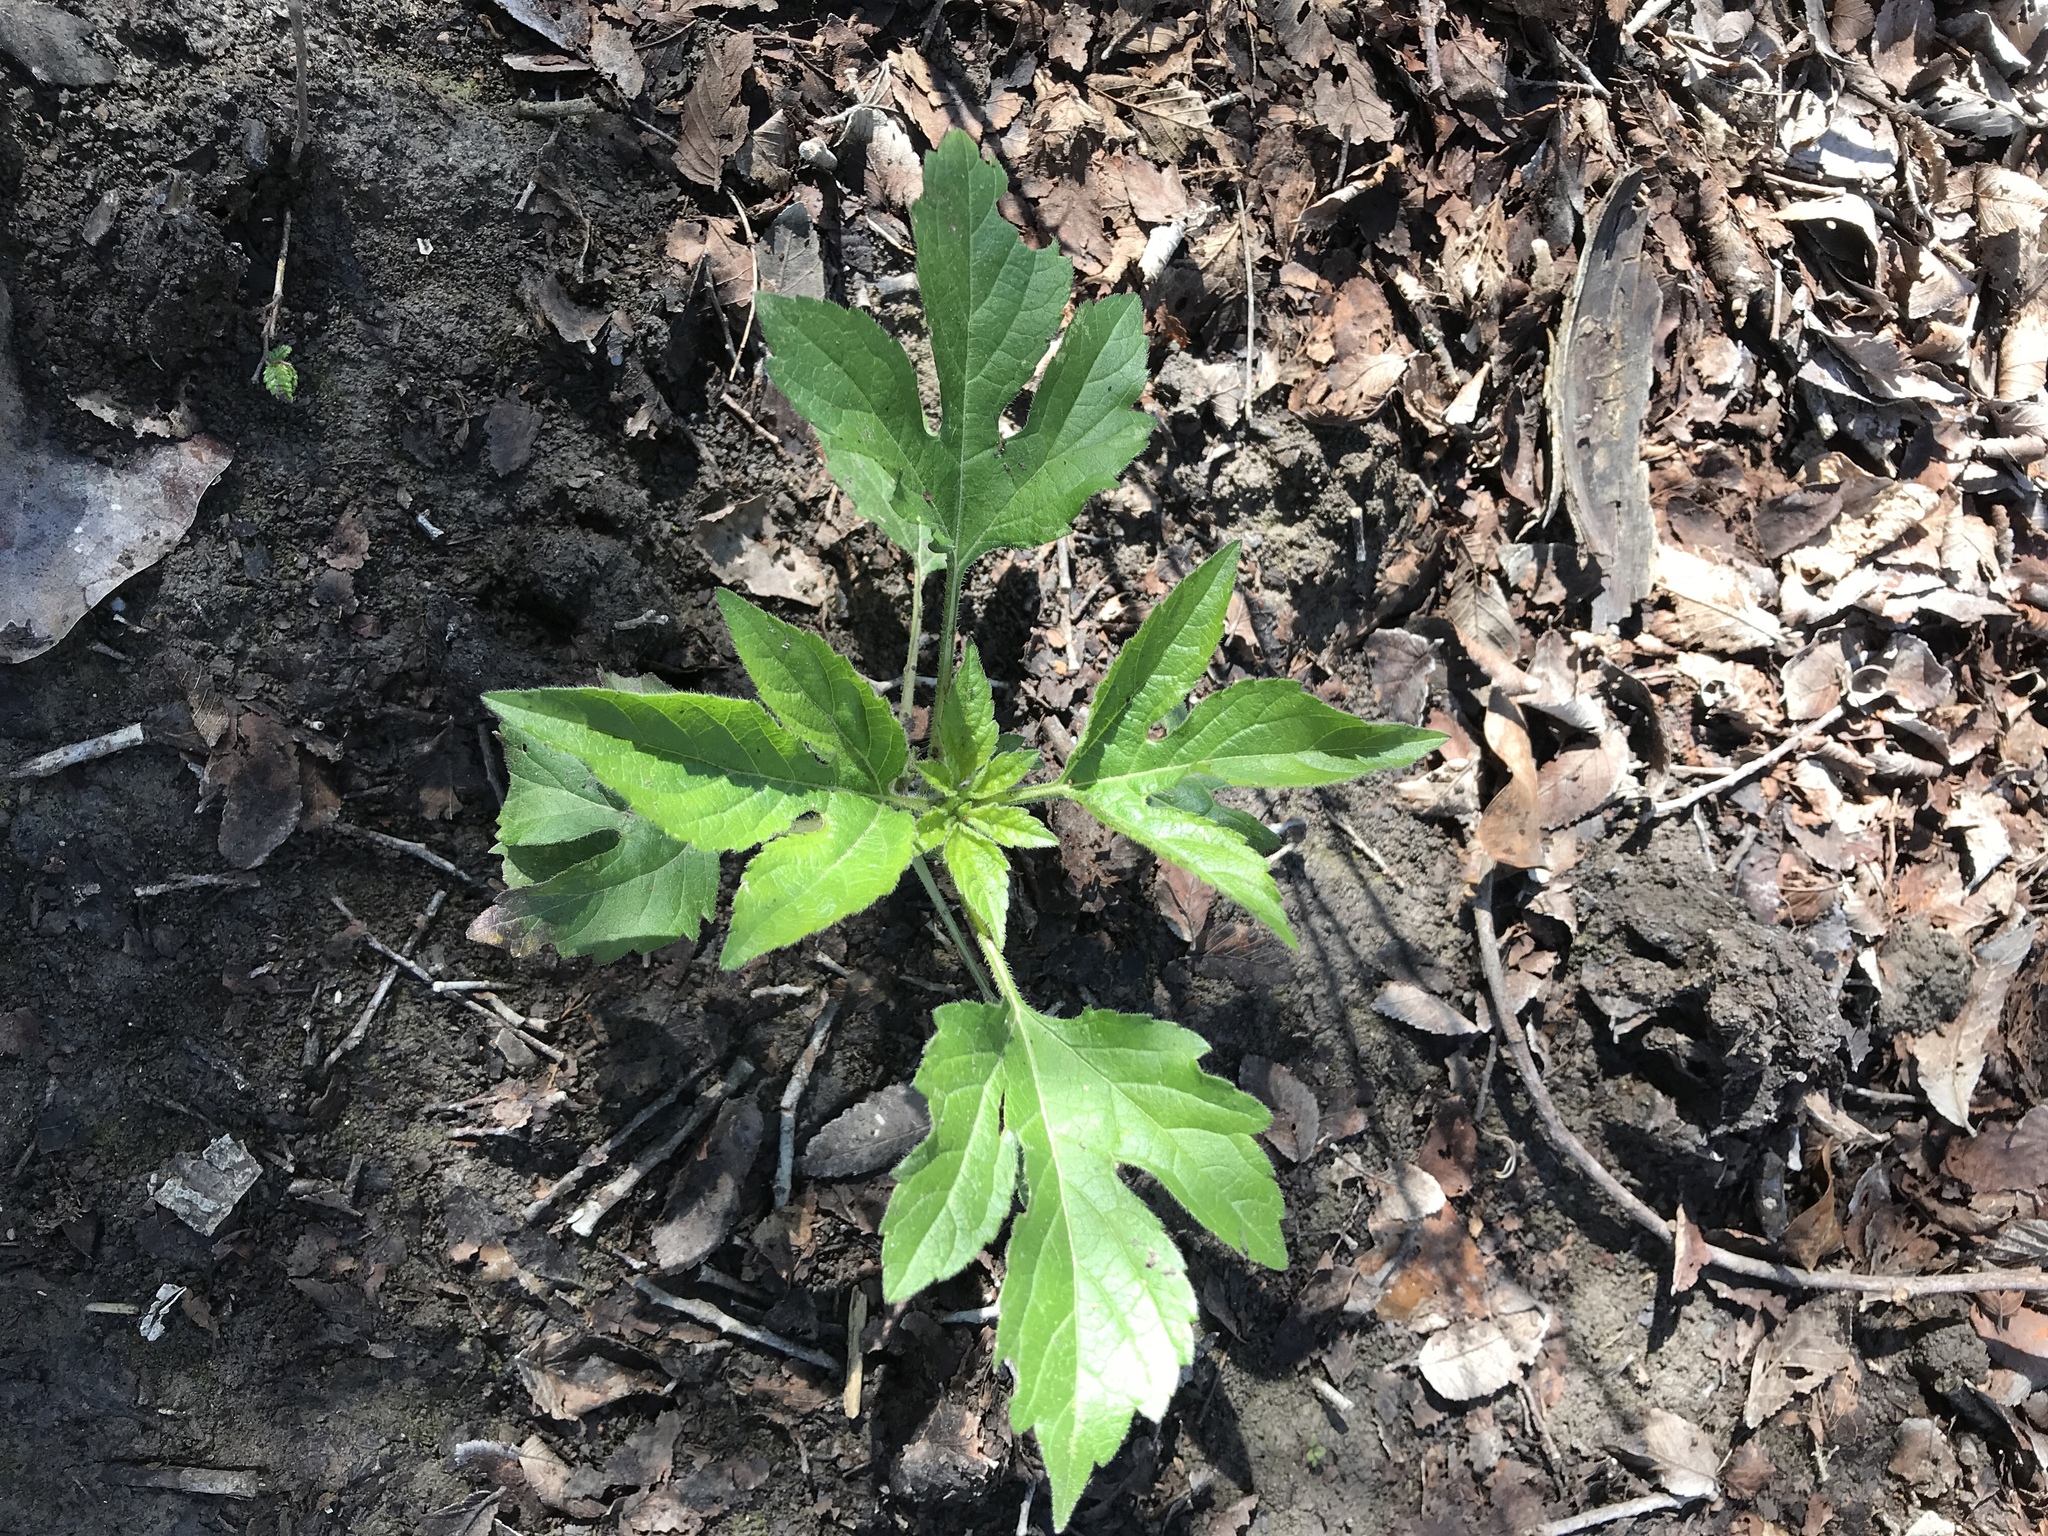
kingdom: Plantae
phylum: Tracheophyta
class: Magnoliopsida
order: Asterales
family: Asteraceae
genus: Ambrosia
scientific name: Ambrosia trifida
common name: Giant ragweed
